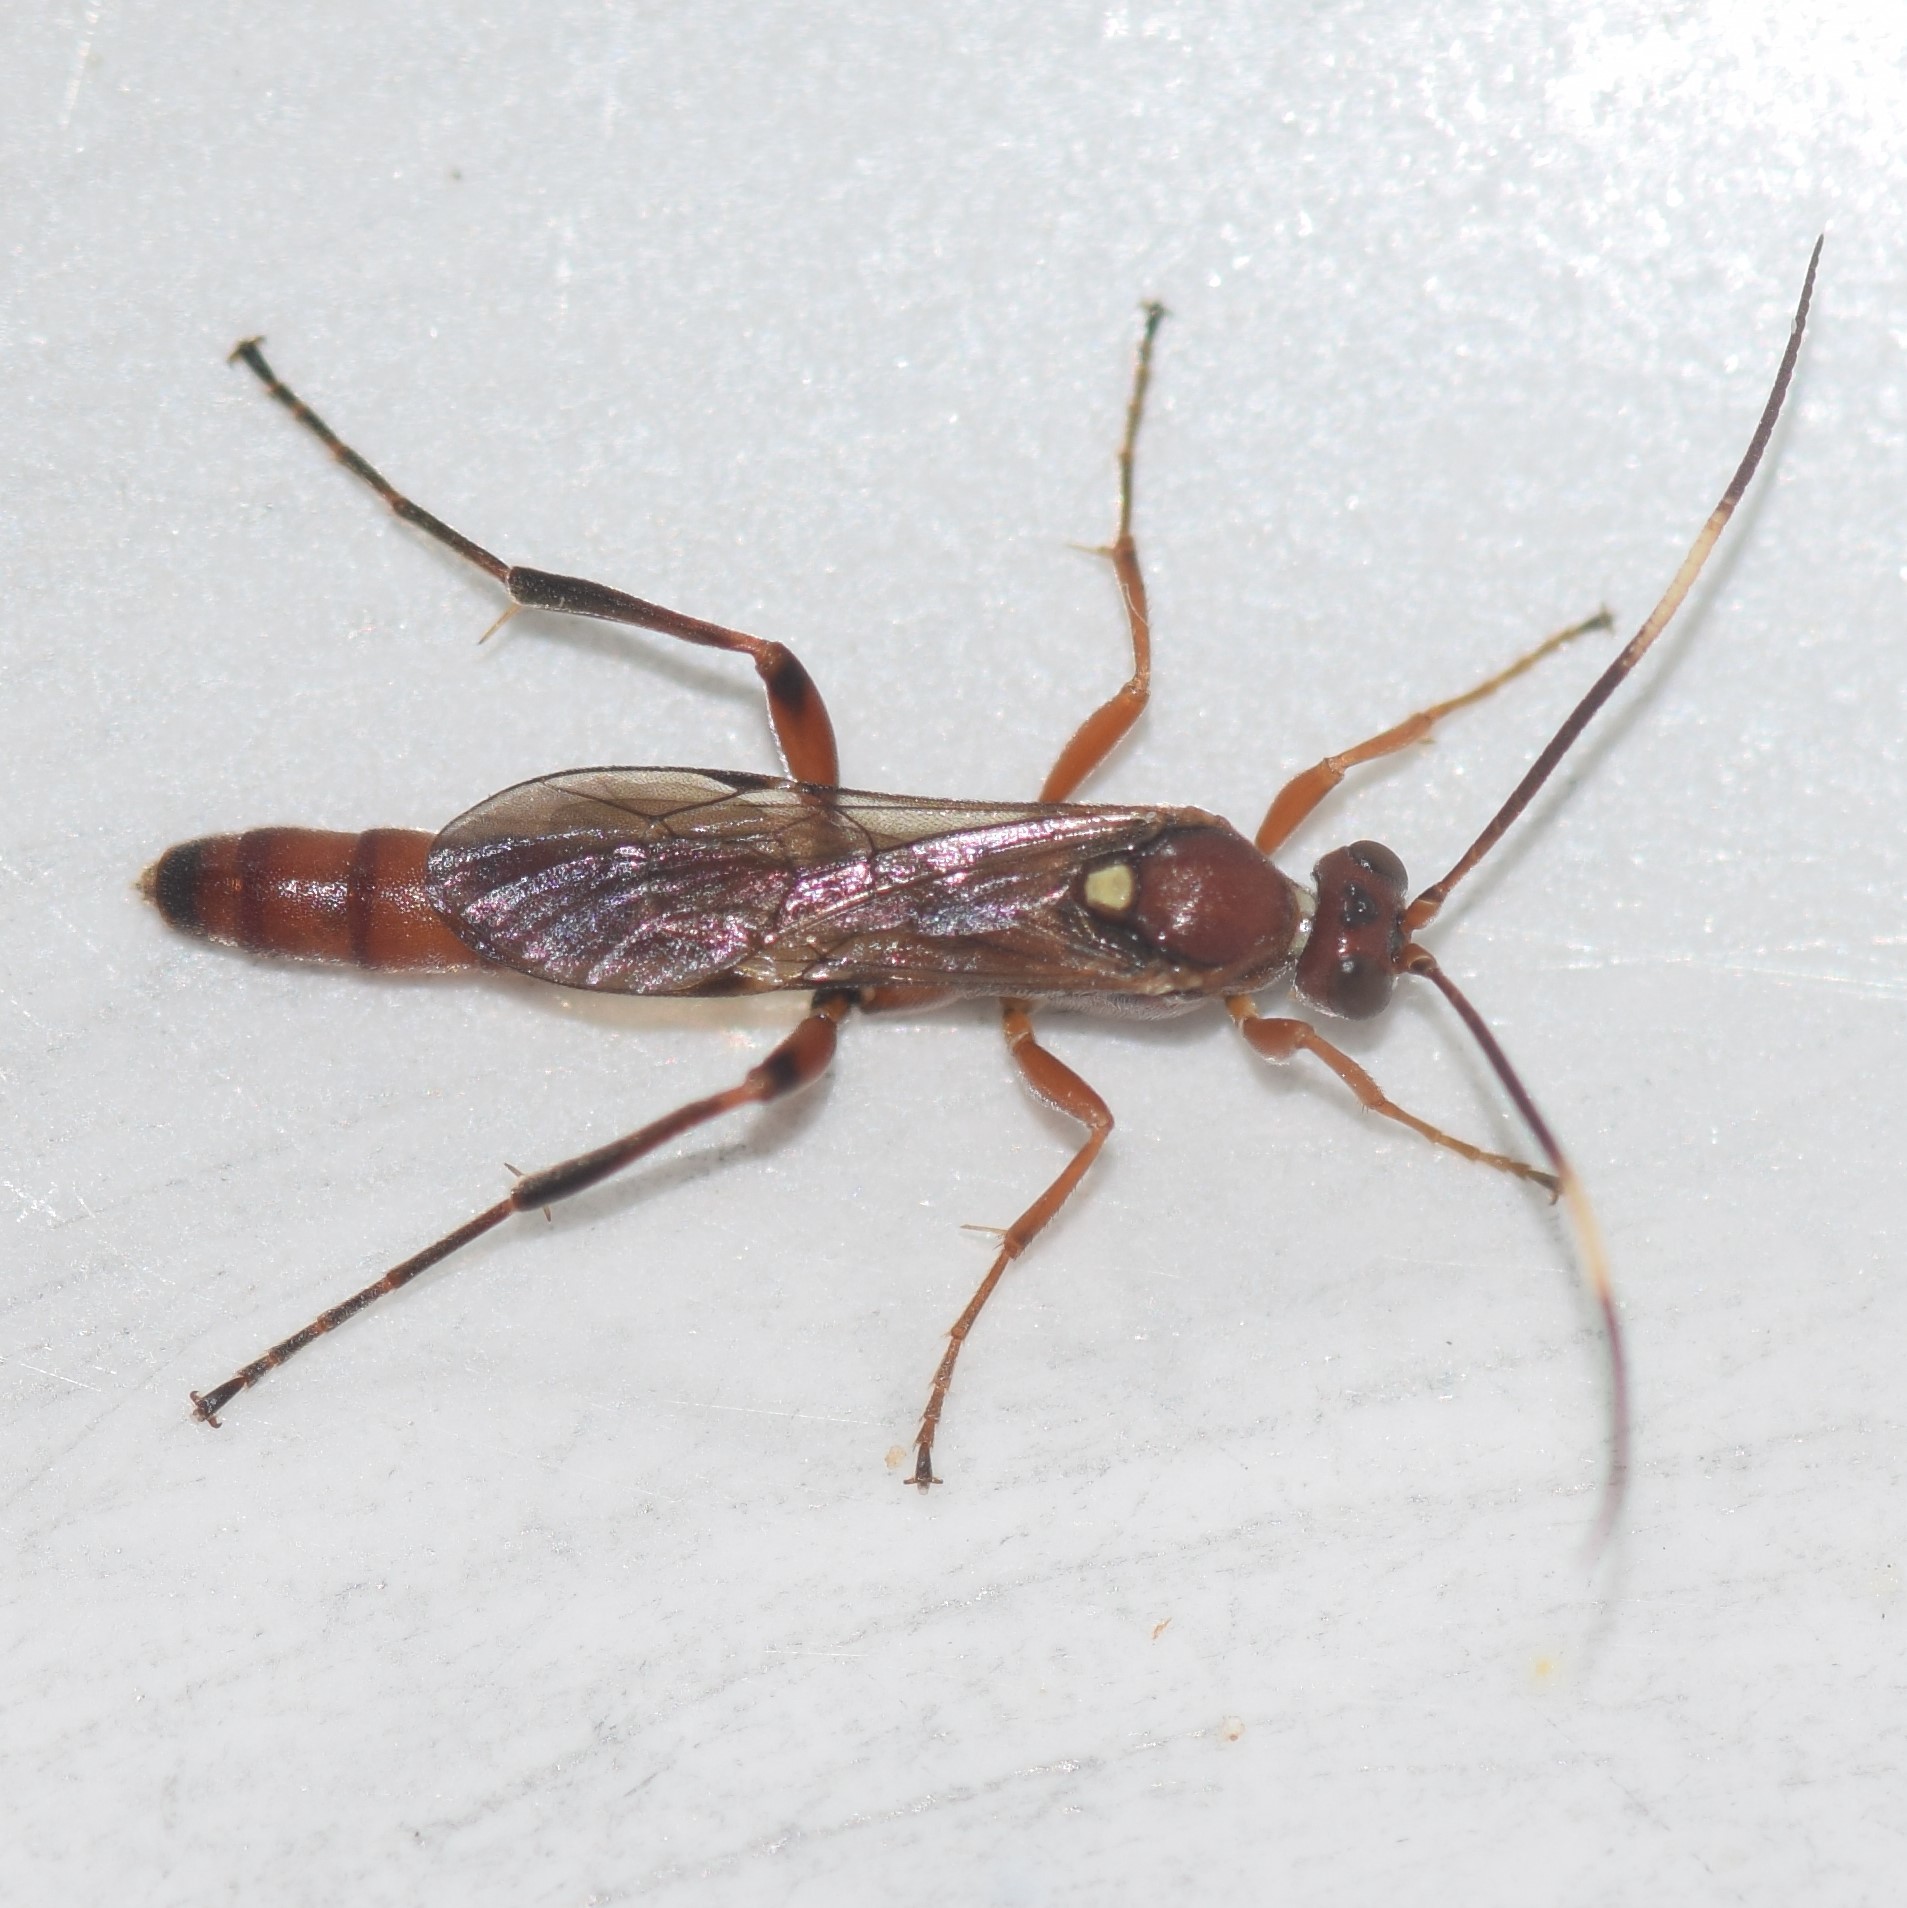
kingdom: Animalia
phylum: Arthropoda
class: Insecta
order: Hymenoptera
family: Ichneumonidae
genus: Rubicundiella
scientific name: Rubicundiella mucronata
